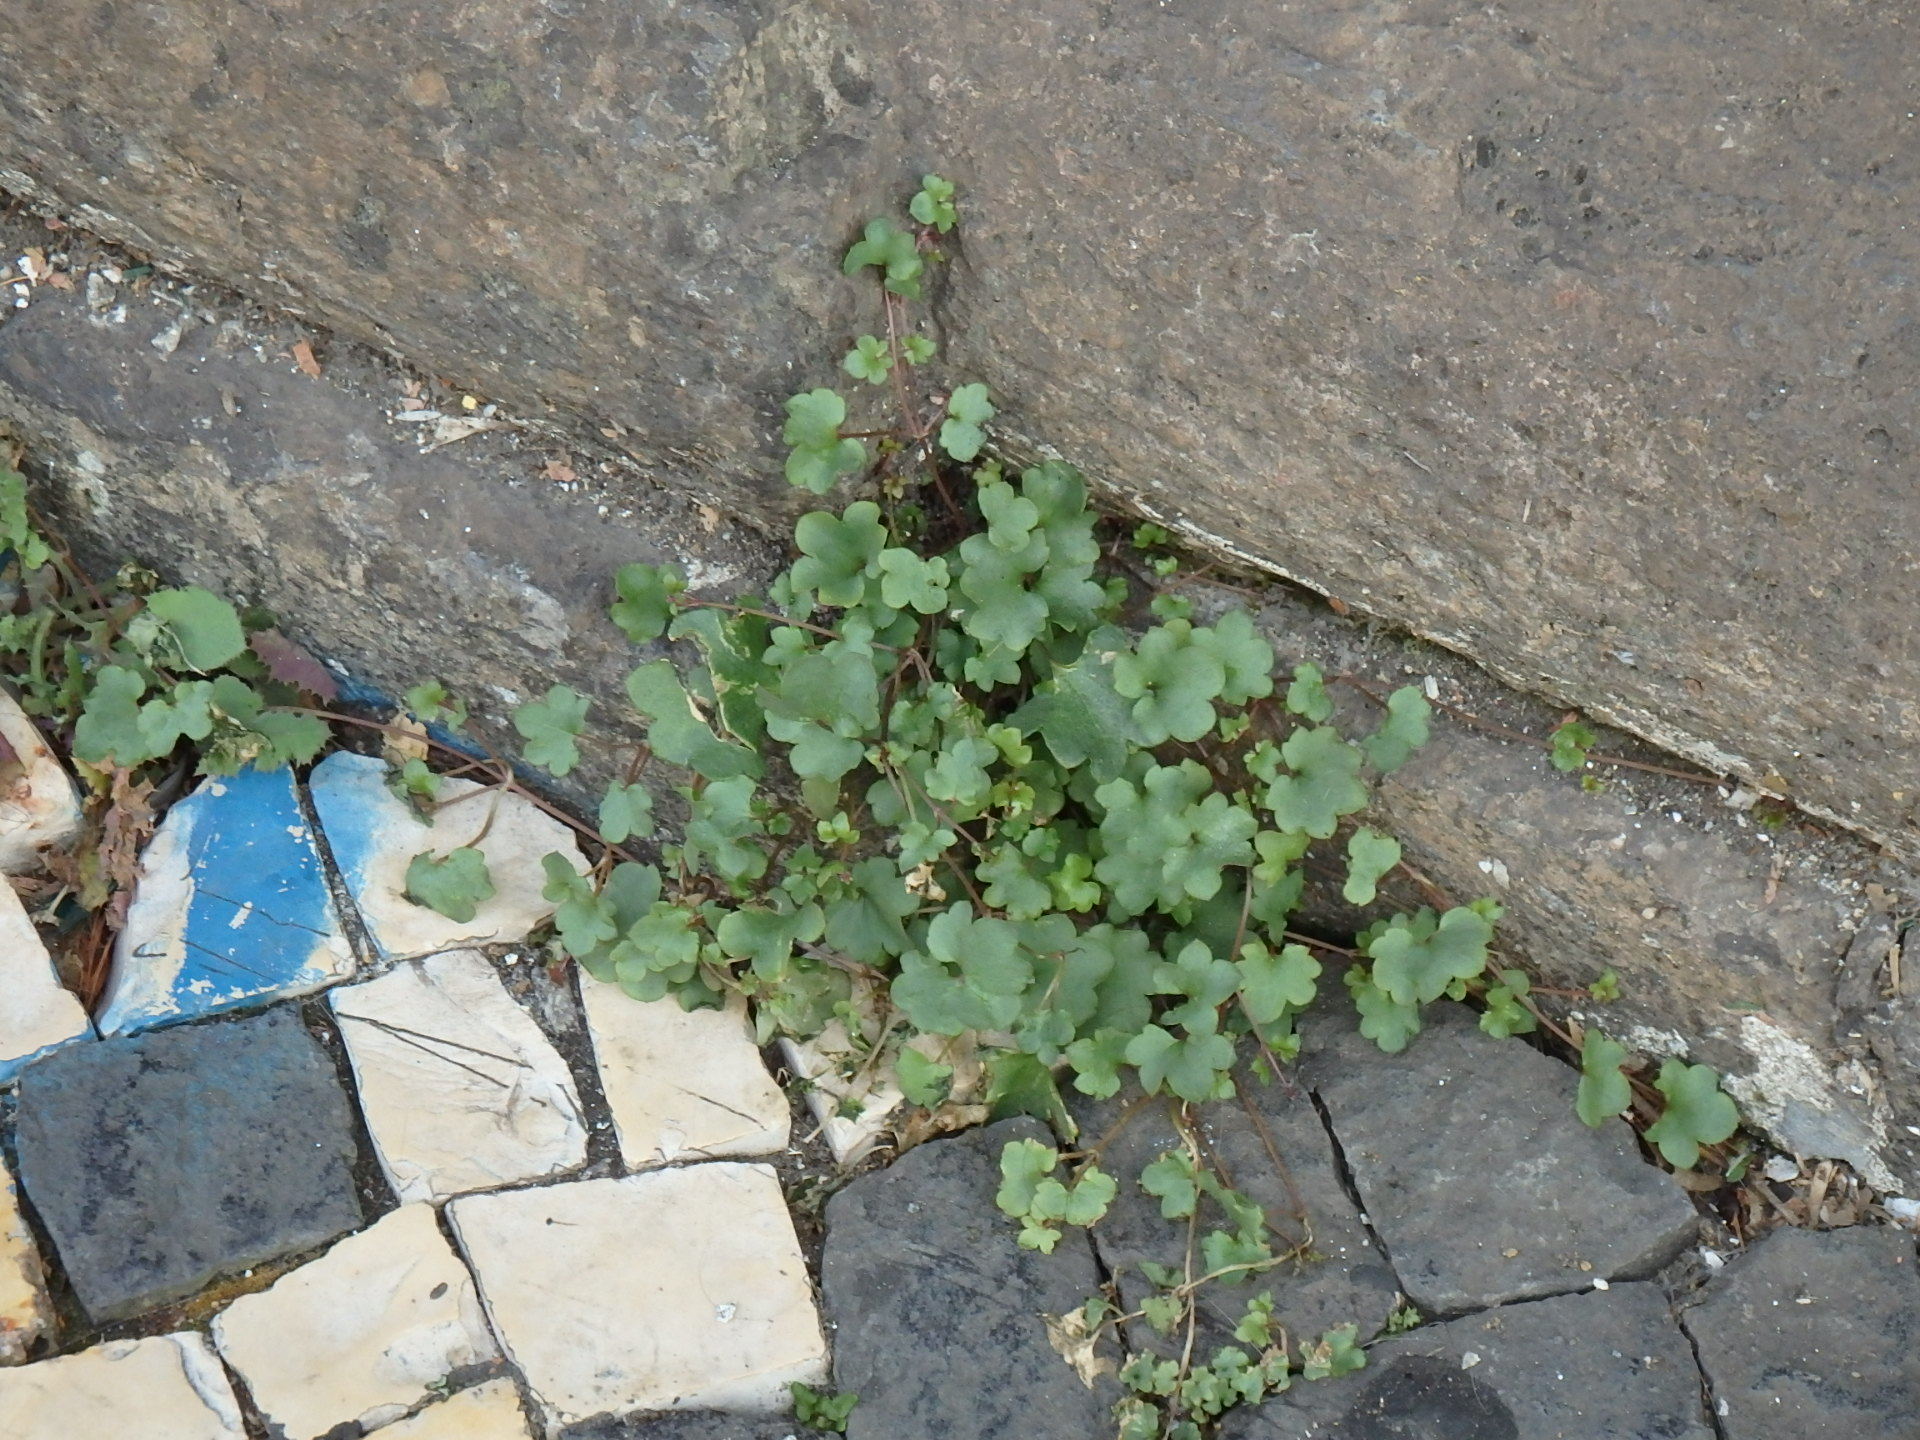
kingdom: Plantae
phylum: Tracheophyta
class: Magnoliopsida
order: Lamiales
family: Plantaginaceae
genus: Cymbalaria
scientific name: Cymbalaria muralis
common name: Ivy-leaved toadflax
